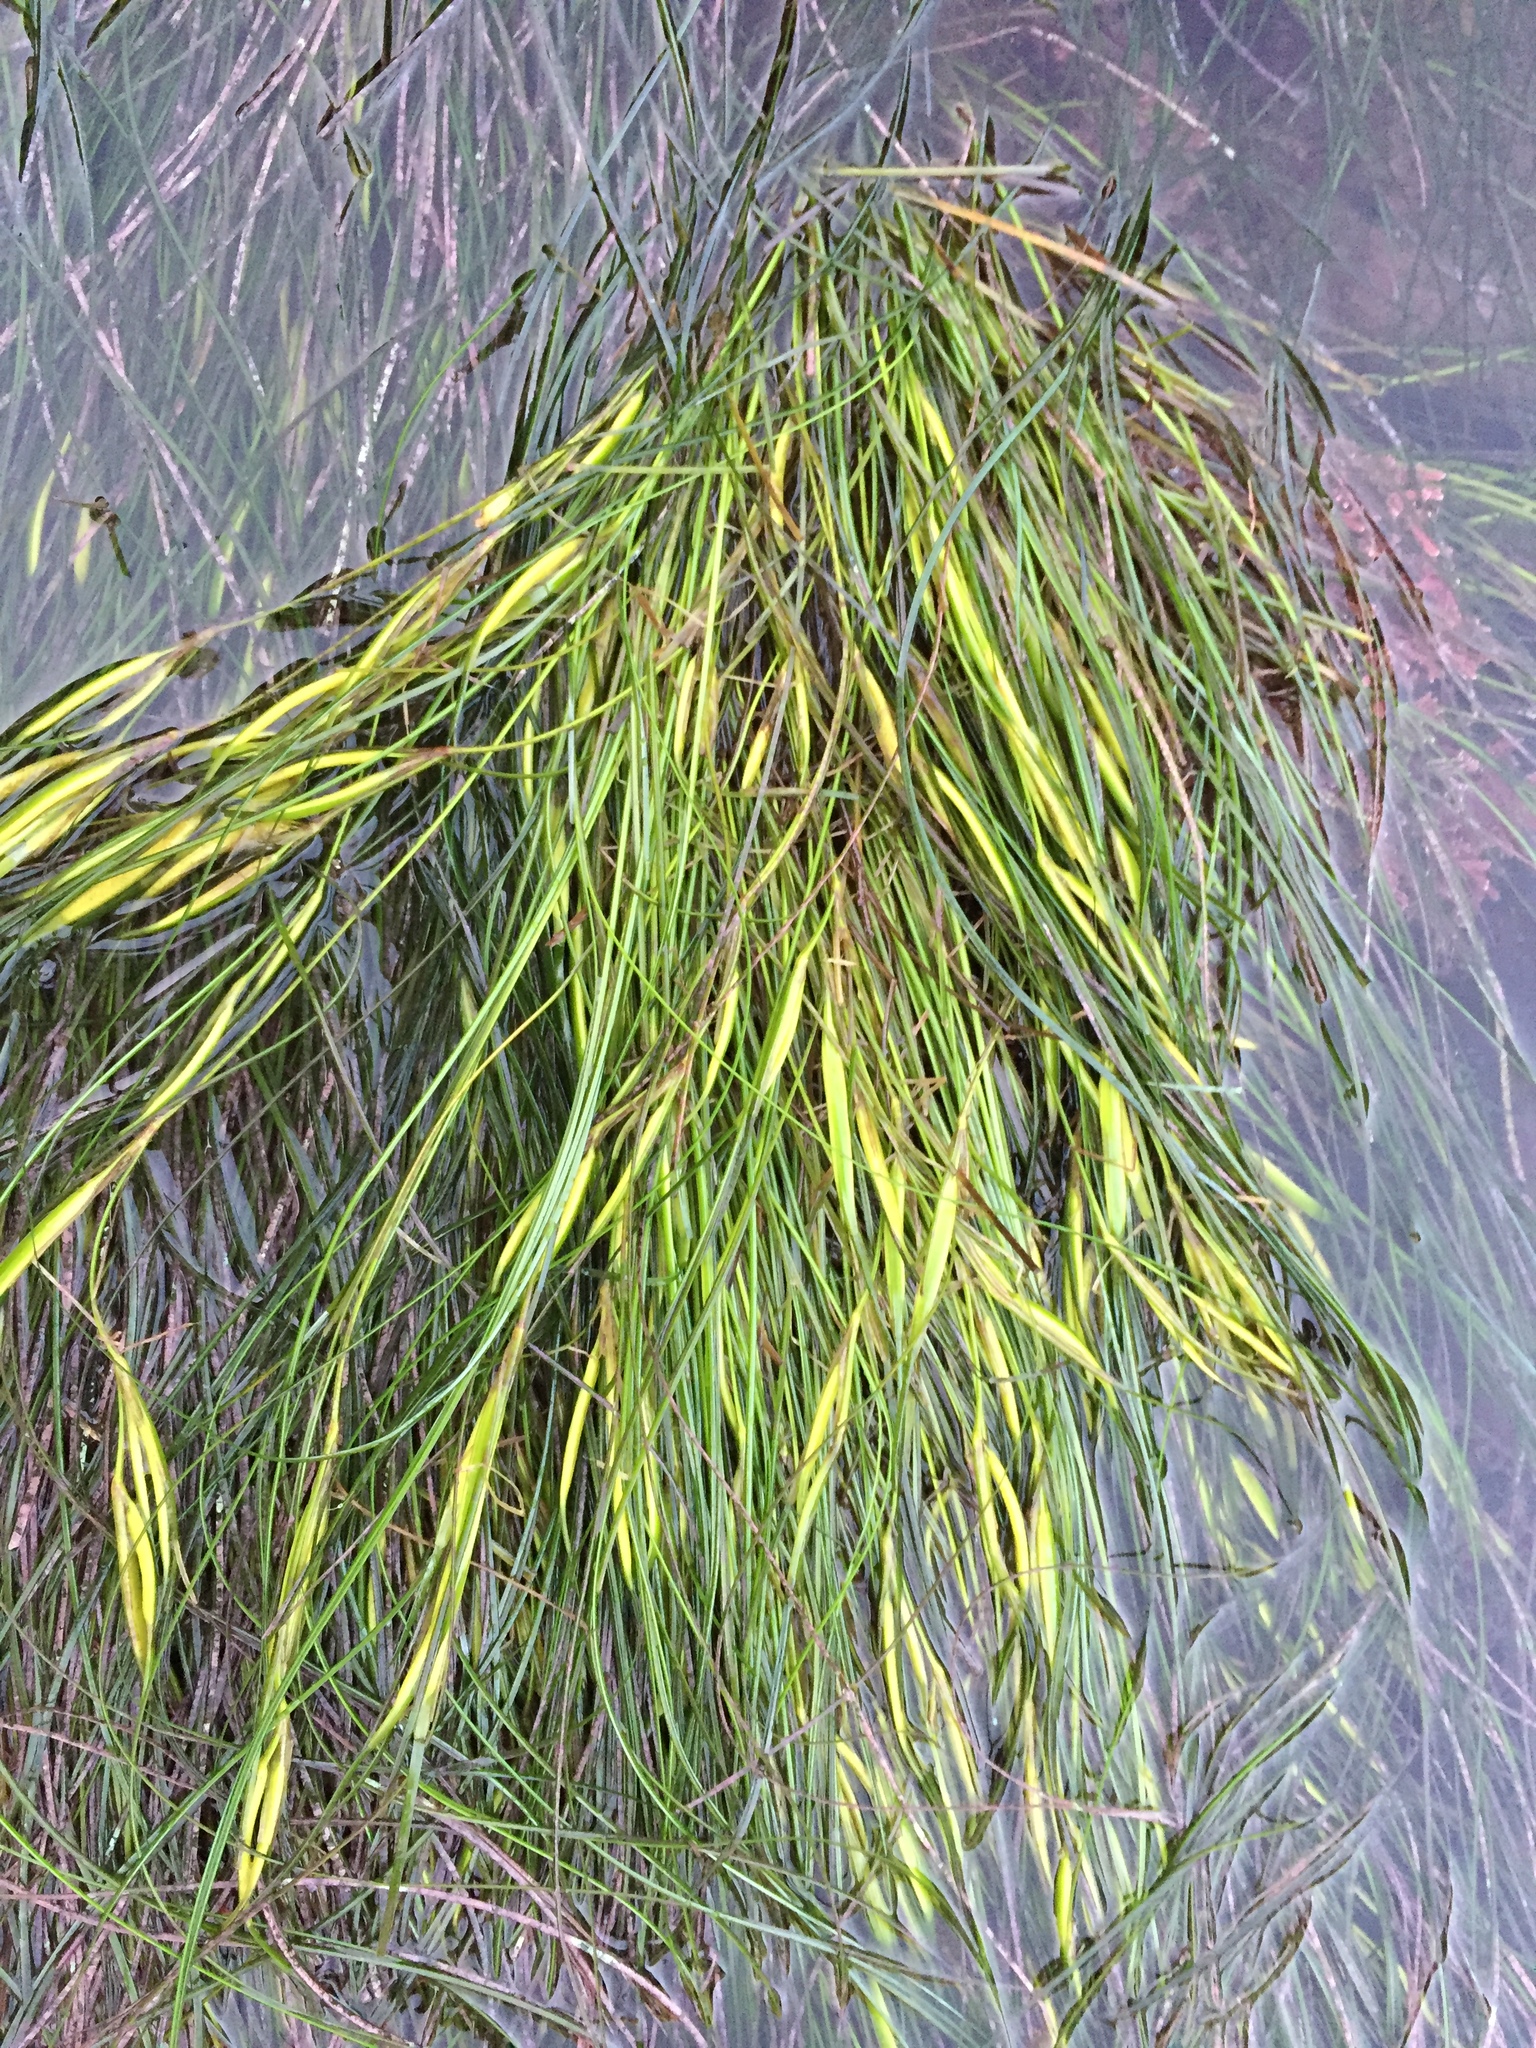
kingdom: Plantae
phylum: Tracheophyta
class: Liliopsida
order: Alismatales
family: Zosteraceae
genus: Phyllospadix
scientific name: Phyllospadix torreyi
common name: Surfgrass
